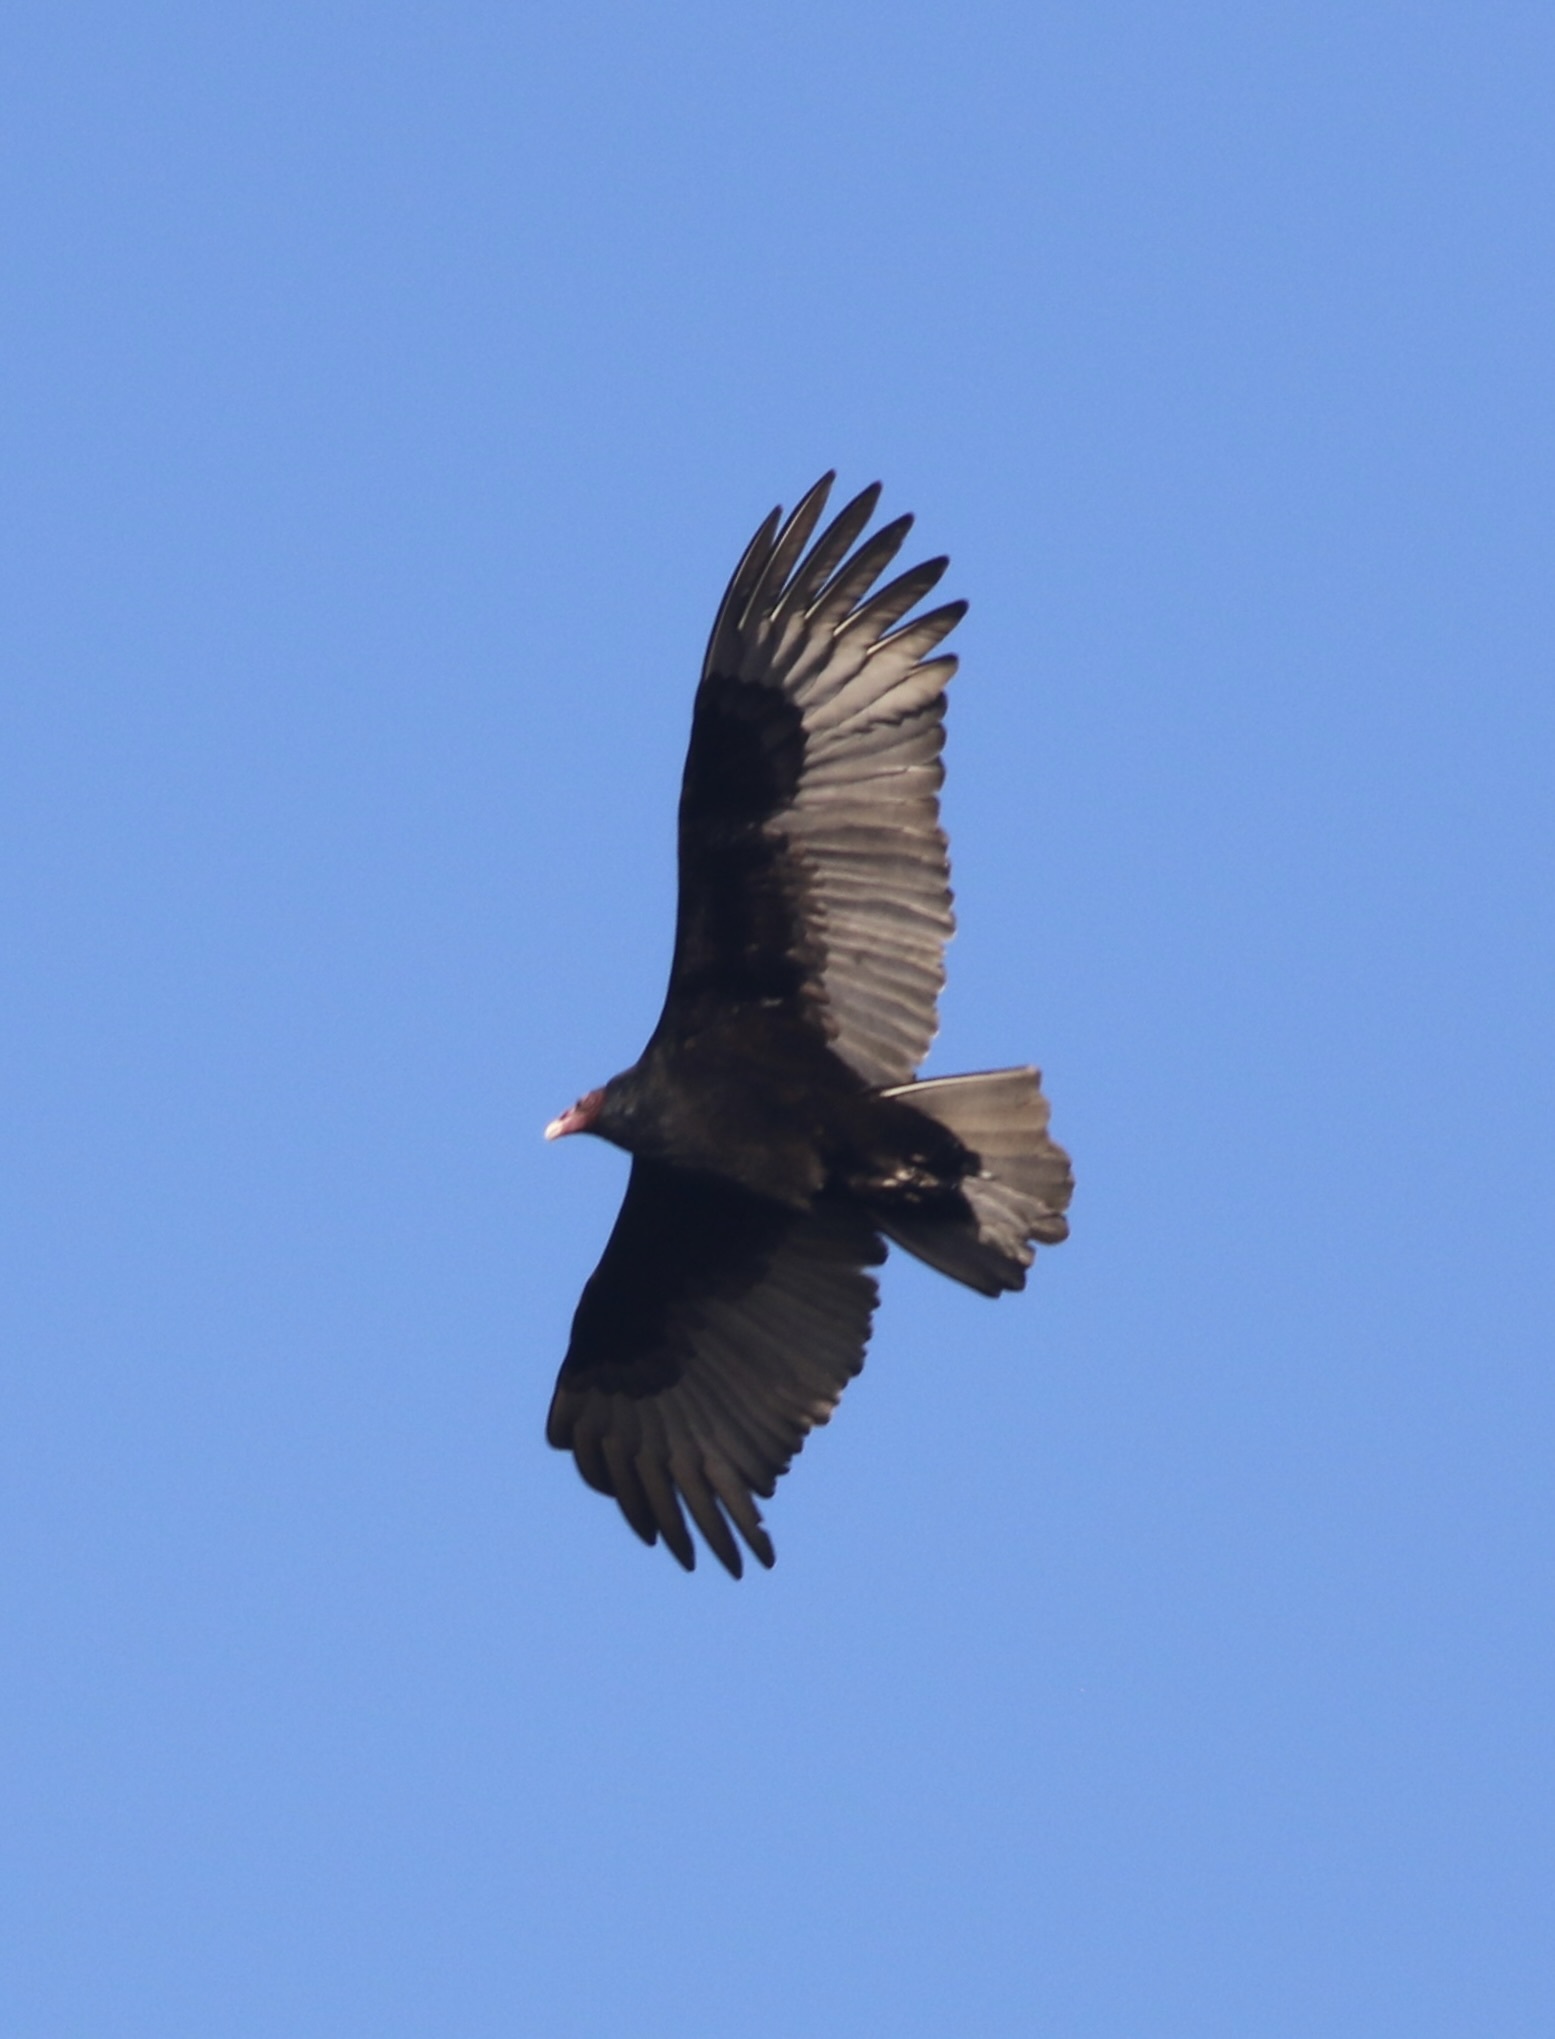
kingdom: Animalia
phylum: Chordata
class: Aves
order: Accipitriformes
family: Cathartidae
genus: Cathartes
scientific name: Cathartes aura
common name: Turkey vulture
